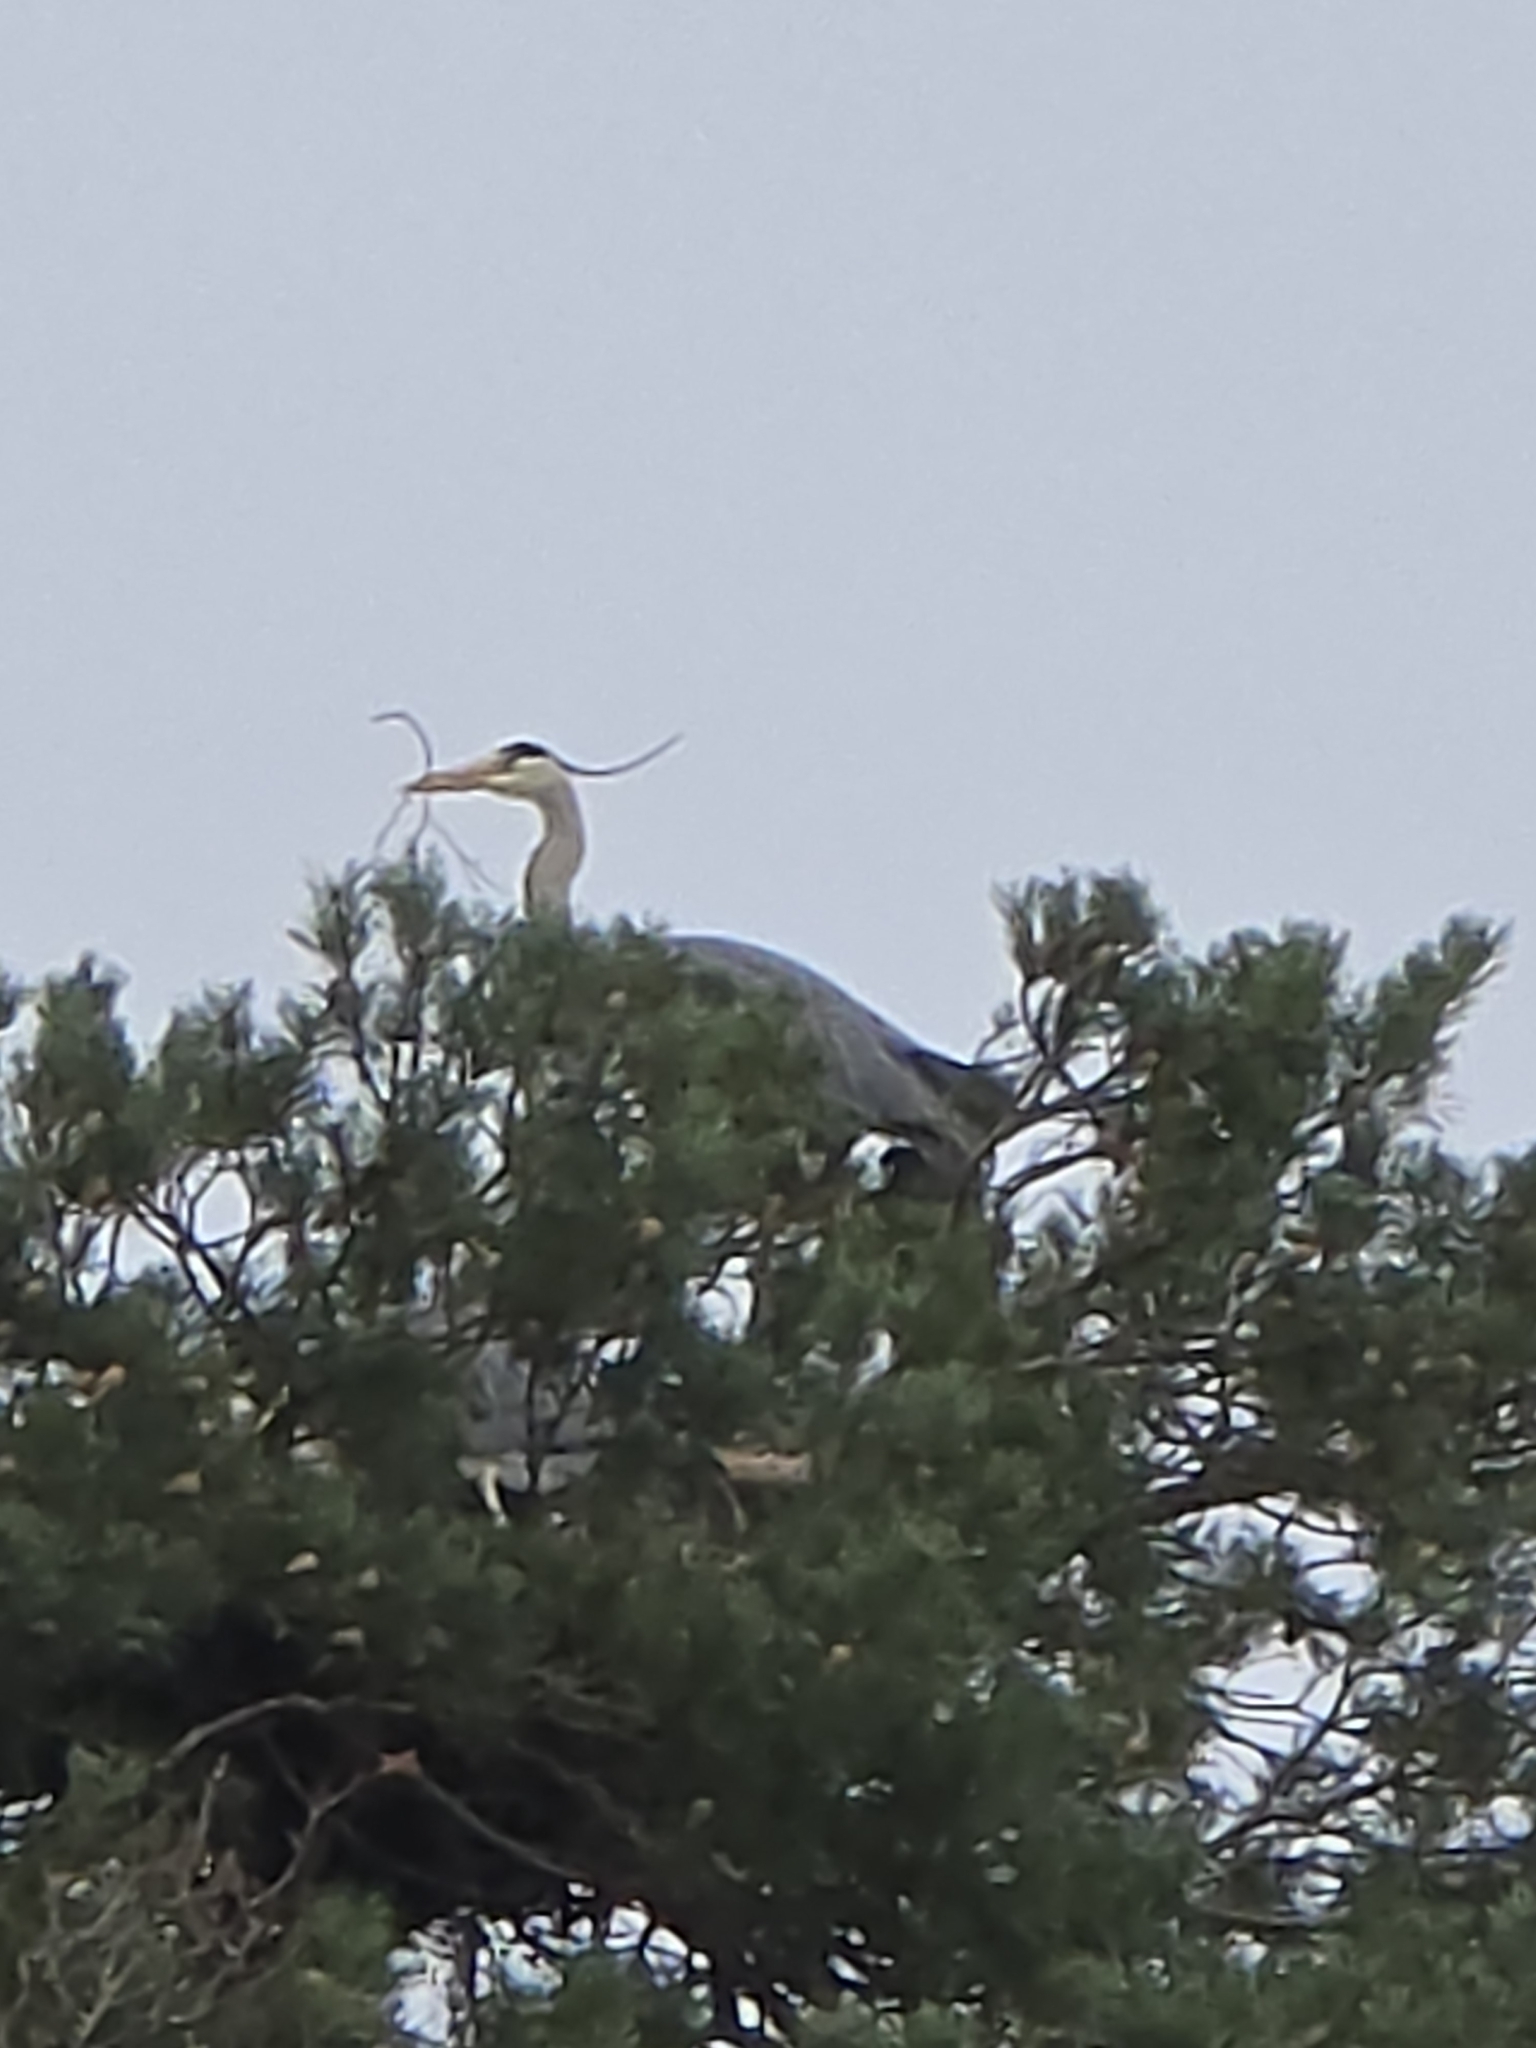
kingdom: Animalia
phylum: Chordata
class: Aves
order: Pelecaniformes
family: Ardeidae
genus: Ardea
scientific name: Ardea cinerea
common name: Grey heron
